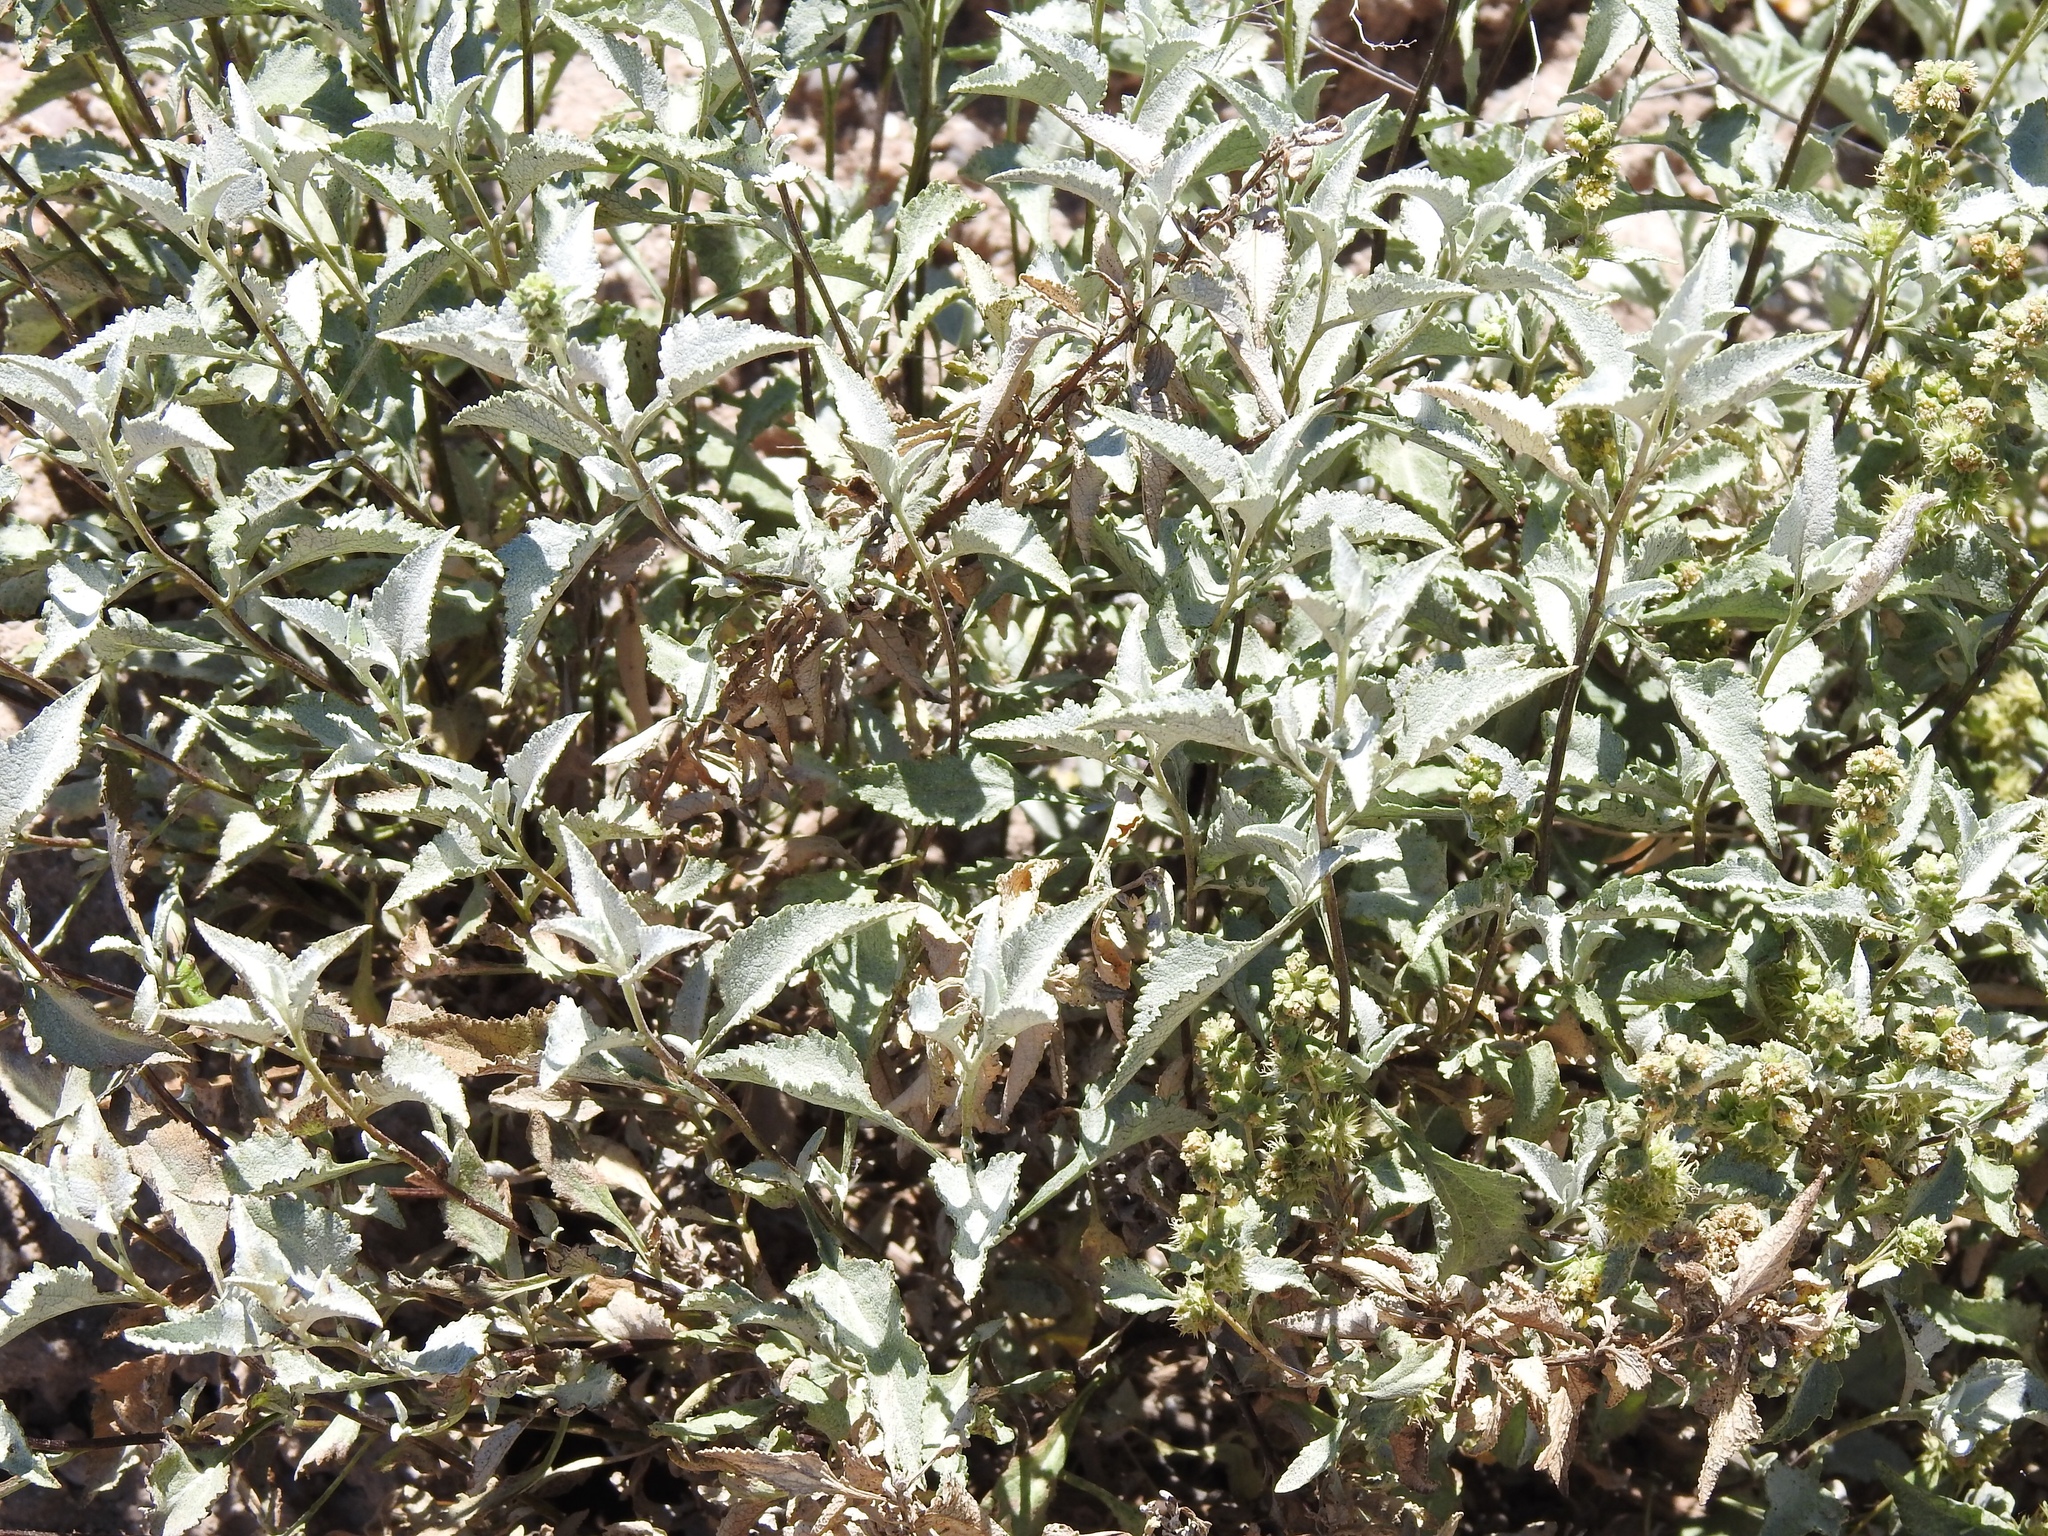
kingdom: Plantae
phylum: Tracheophyta
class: Magnoliopsida
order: Asterales
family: Asteraceae
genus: Ambrosia
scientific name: Ambrosia deltoidea
